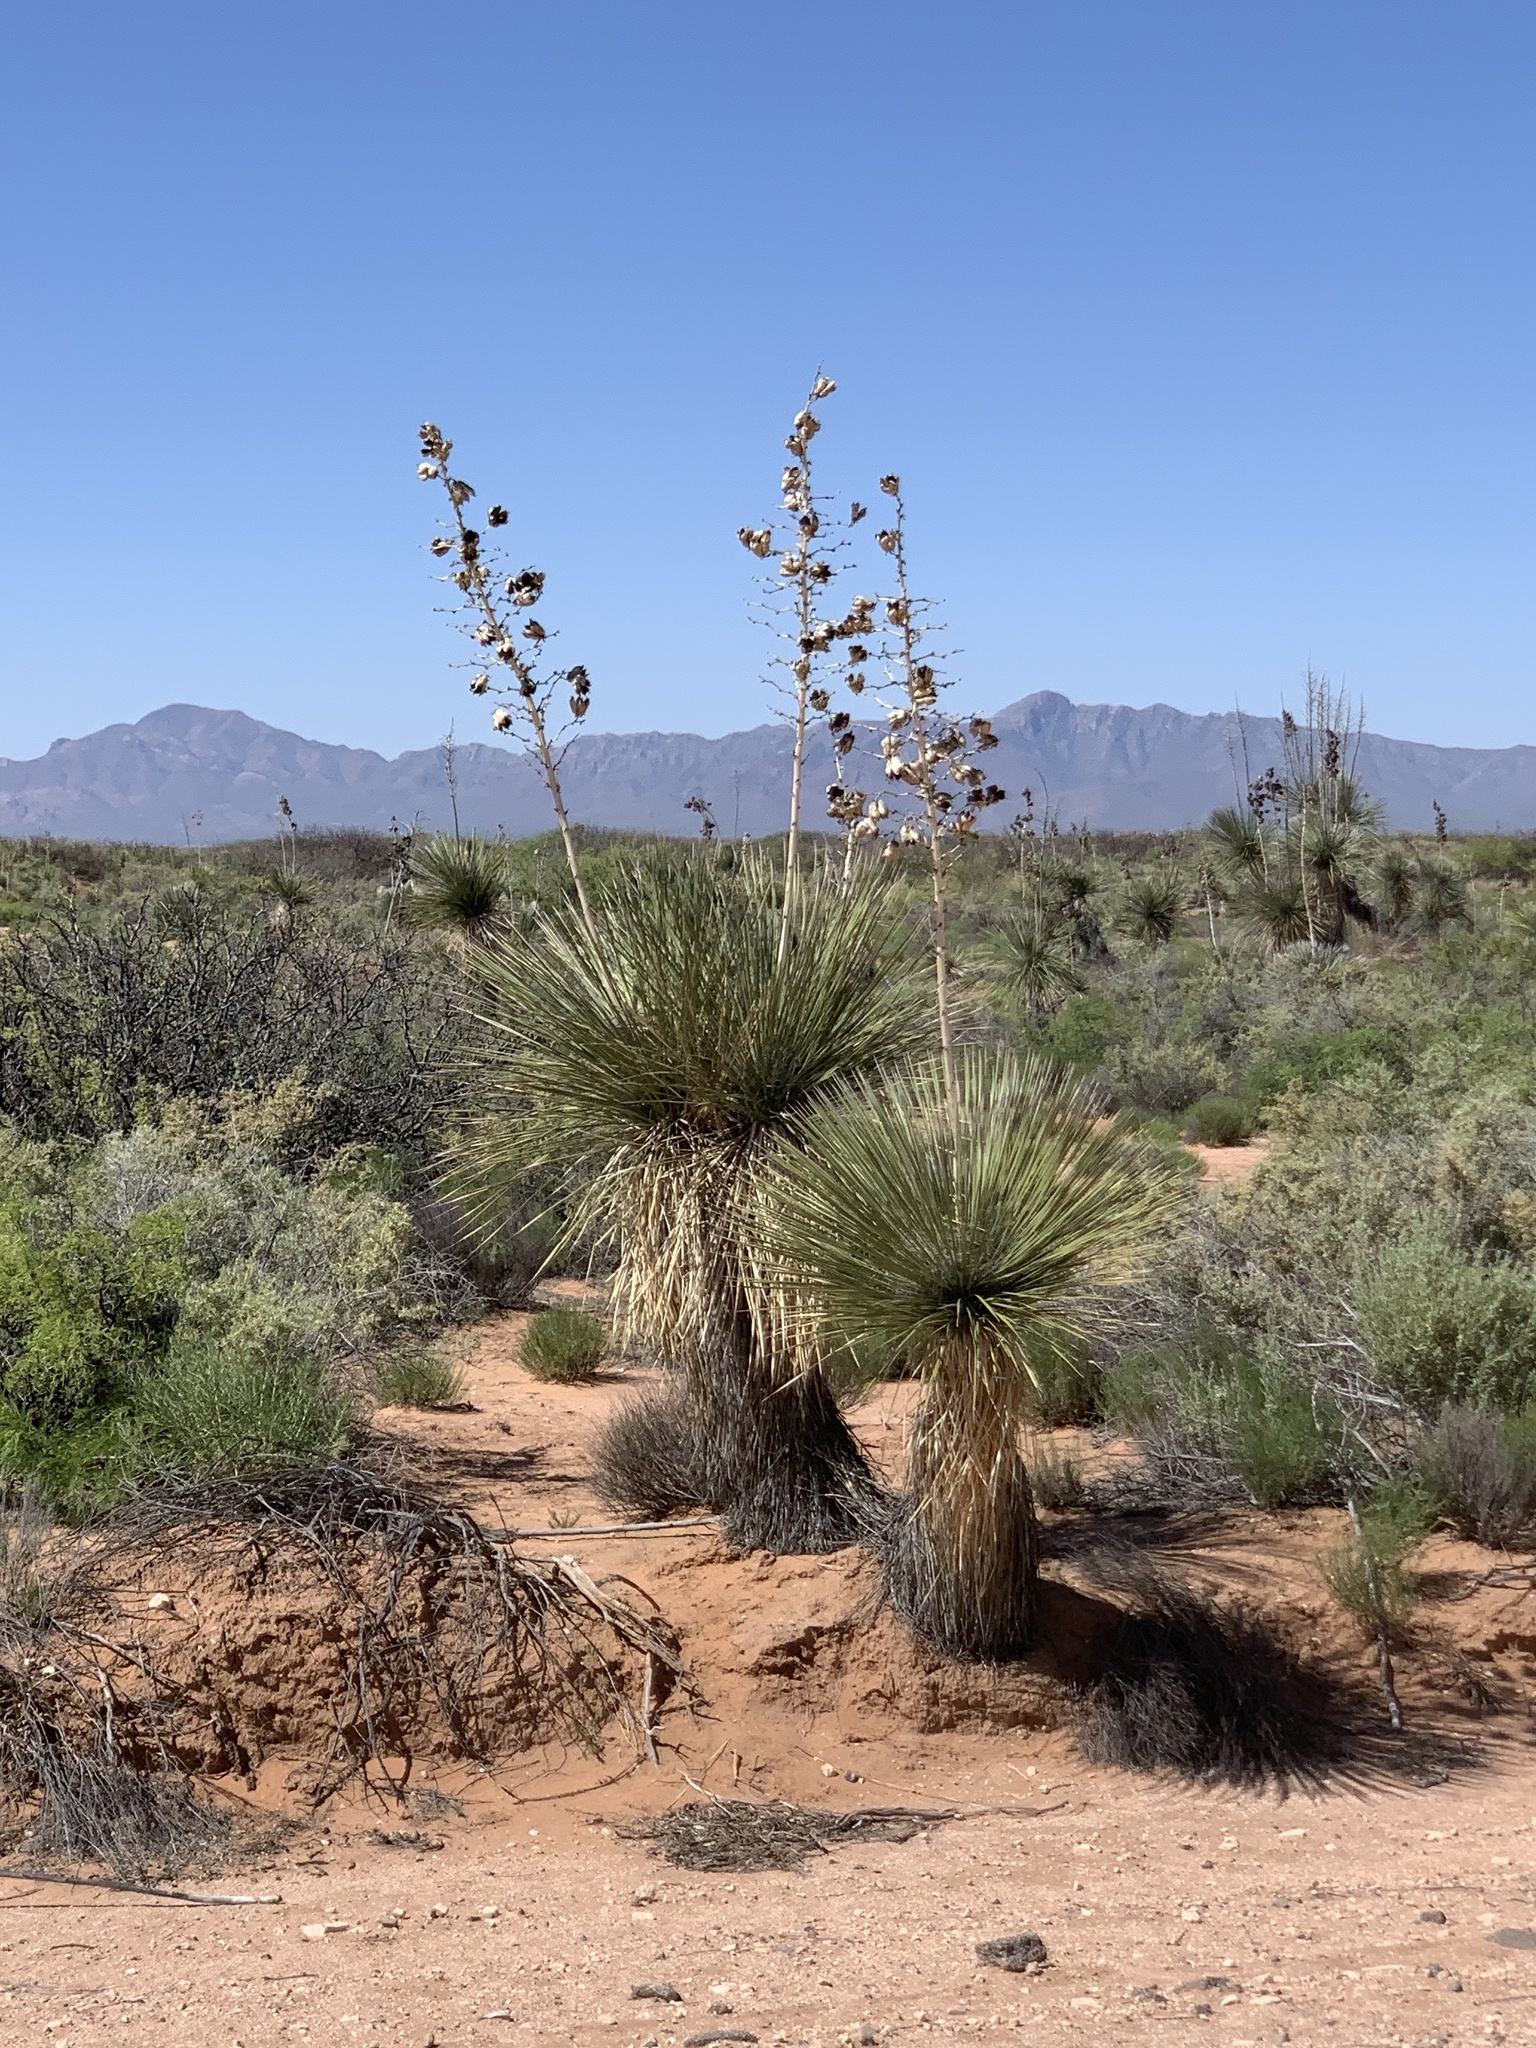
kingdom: Plantae
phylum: Tracheophyta
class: Liliopsida
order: Asparagales
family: Asparagaceae
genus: Yucca
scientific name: Yucca elata
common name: Palmella
